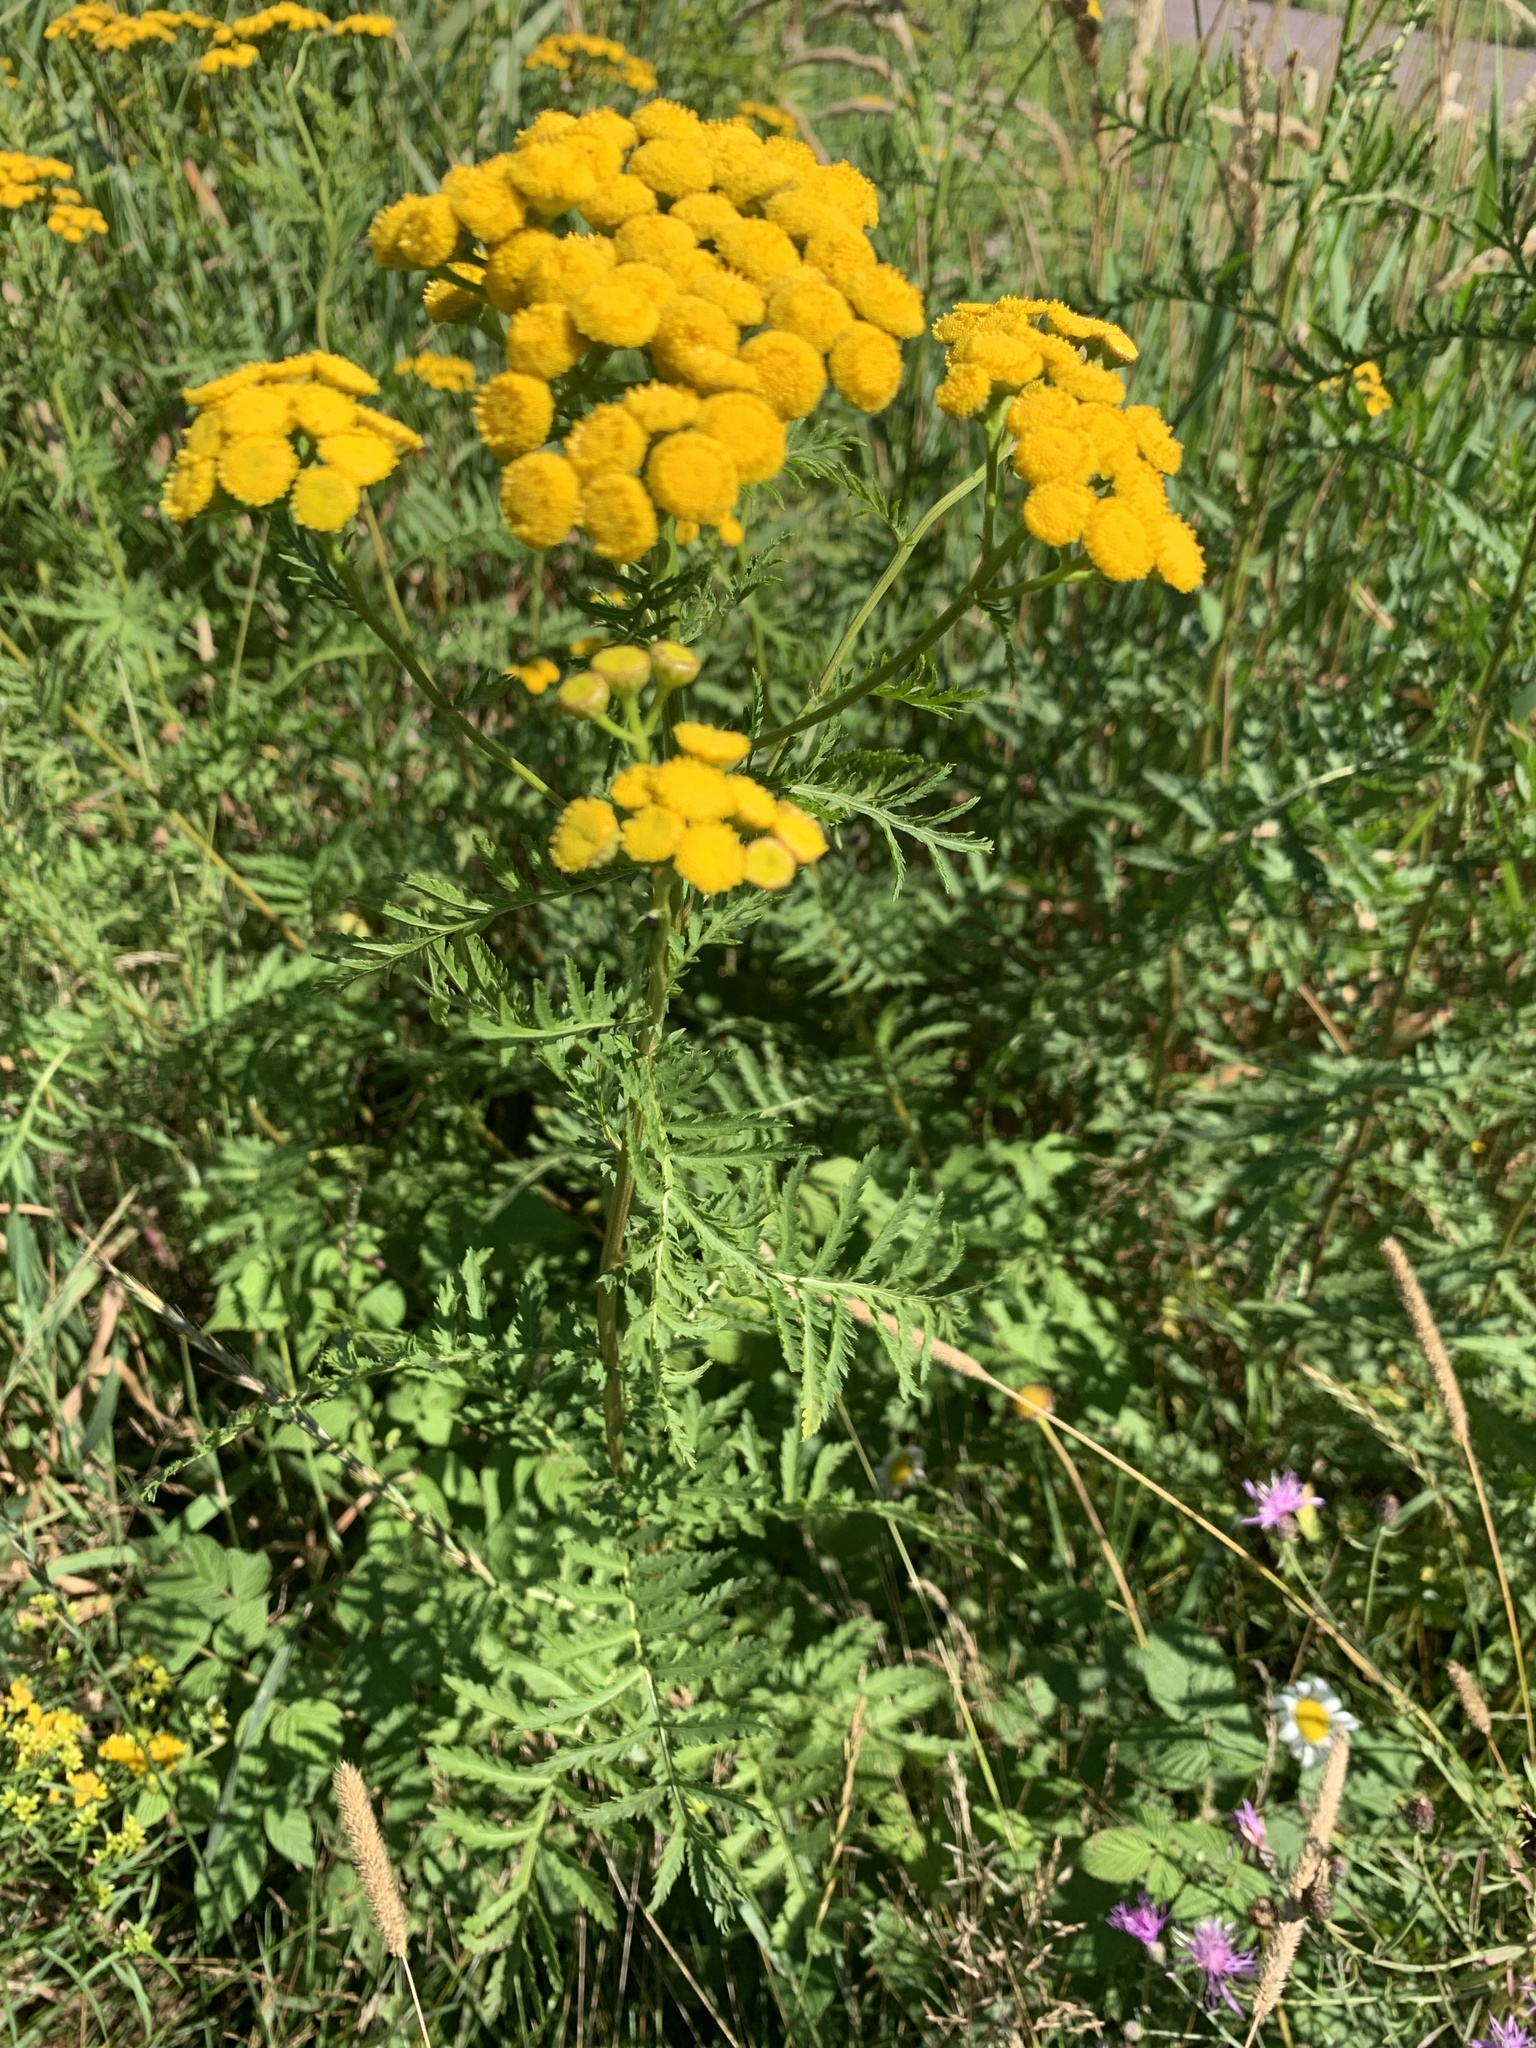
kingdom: Plantae
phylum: Tracheophyta
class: Magnoliopsida
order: Asterales
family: Asteraceae
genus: Tanacetum
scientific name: Tanacetum vulgare
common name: Common tansy
